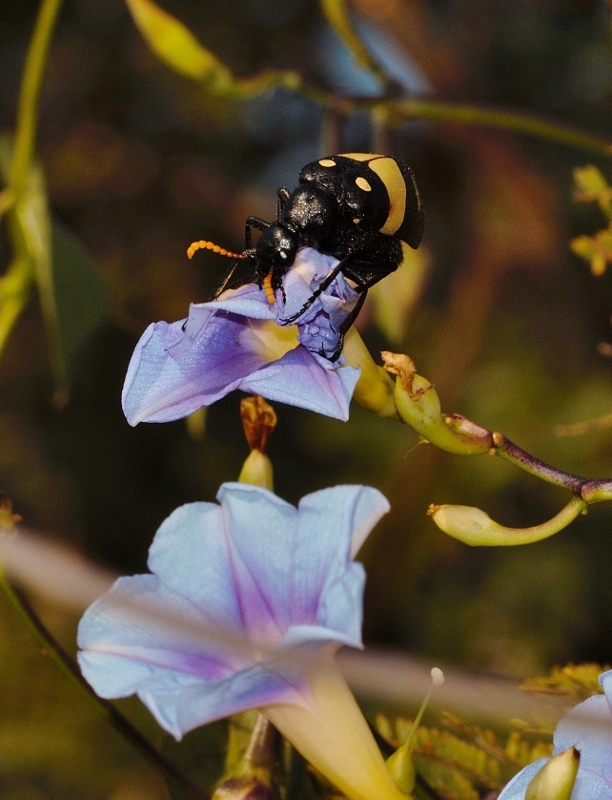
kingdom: Animalia
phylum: Arthropoda
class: Insecta
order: Coleoptera
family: Meloidae
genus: Hycleus
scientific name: Hycleus
